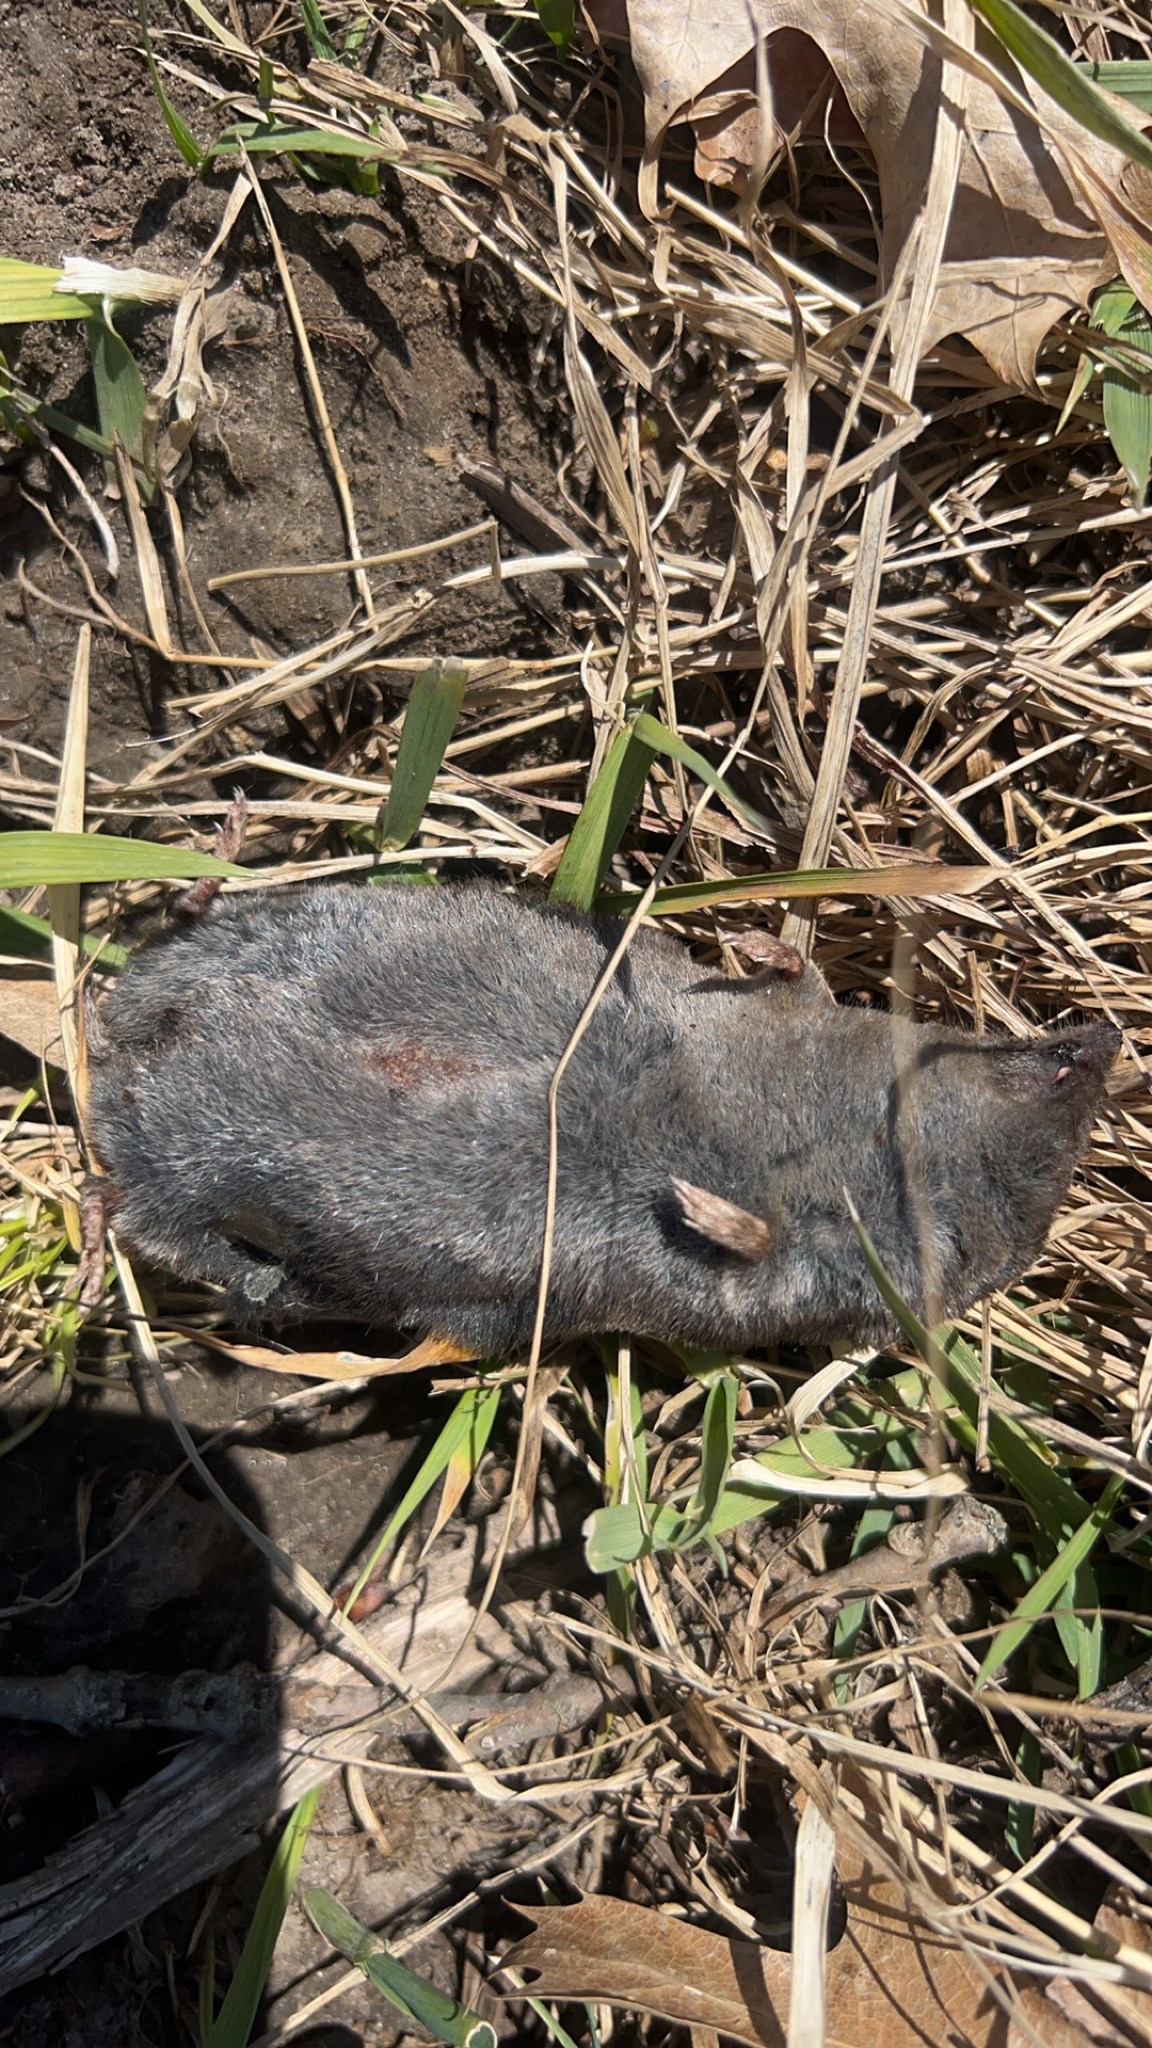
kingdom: Animalia
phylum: Chordata
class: Mammalia
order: Soricomorpha
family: Soricidae
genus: Blarina
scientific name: Blarina brevicauda
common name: Northern short-tailed shrew
